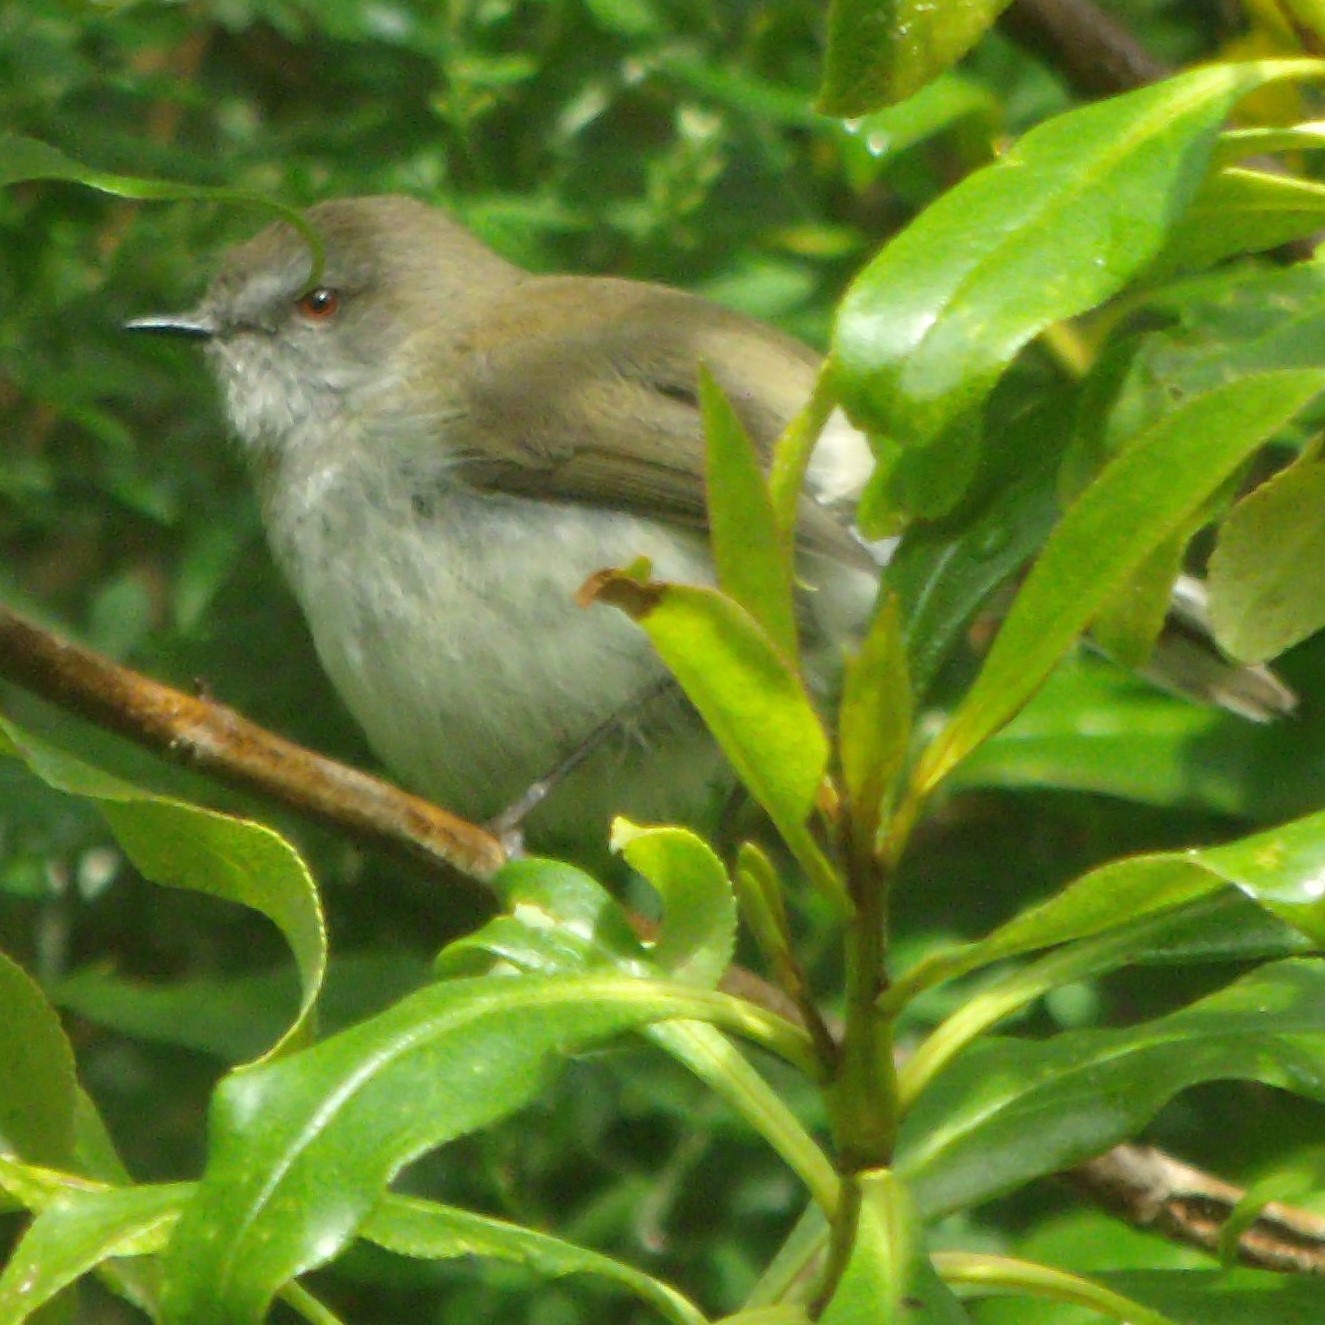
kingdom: Animalia
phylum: Chordata
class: Aves
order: Passeriformes
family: Acanthizidae
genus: Gerygone
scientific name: Gerygone igata
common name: Grey gerygone
